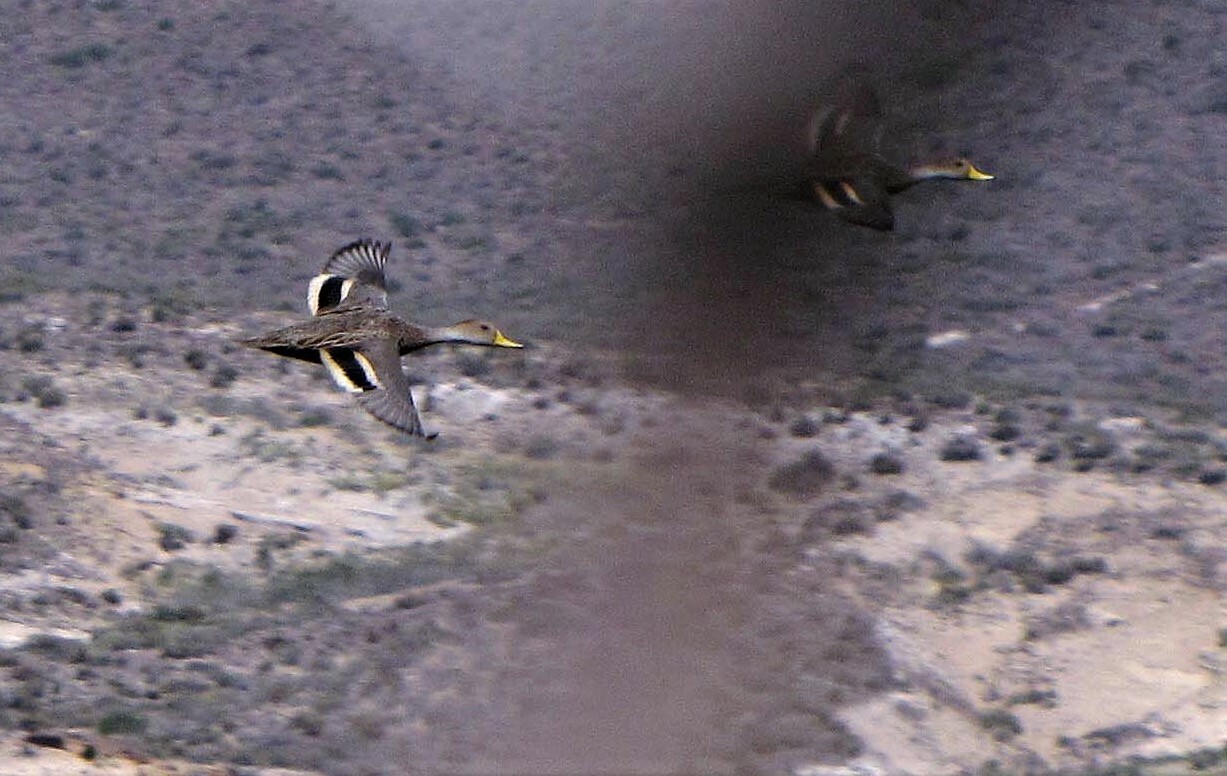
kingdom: Animalia
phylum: Chordata
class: Aves
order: Anseriformes
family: Anatidae
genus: Anas
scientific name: Anas georgica
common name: Yellow-billed pintail
